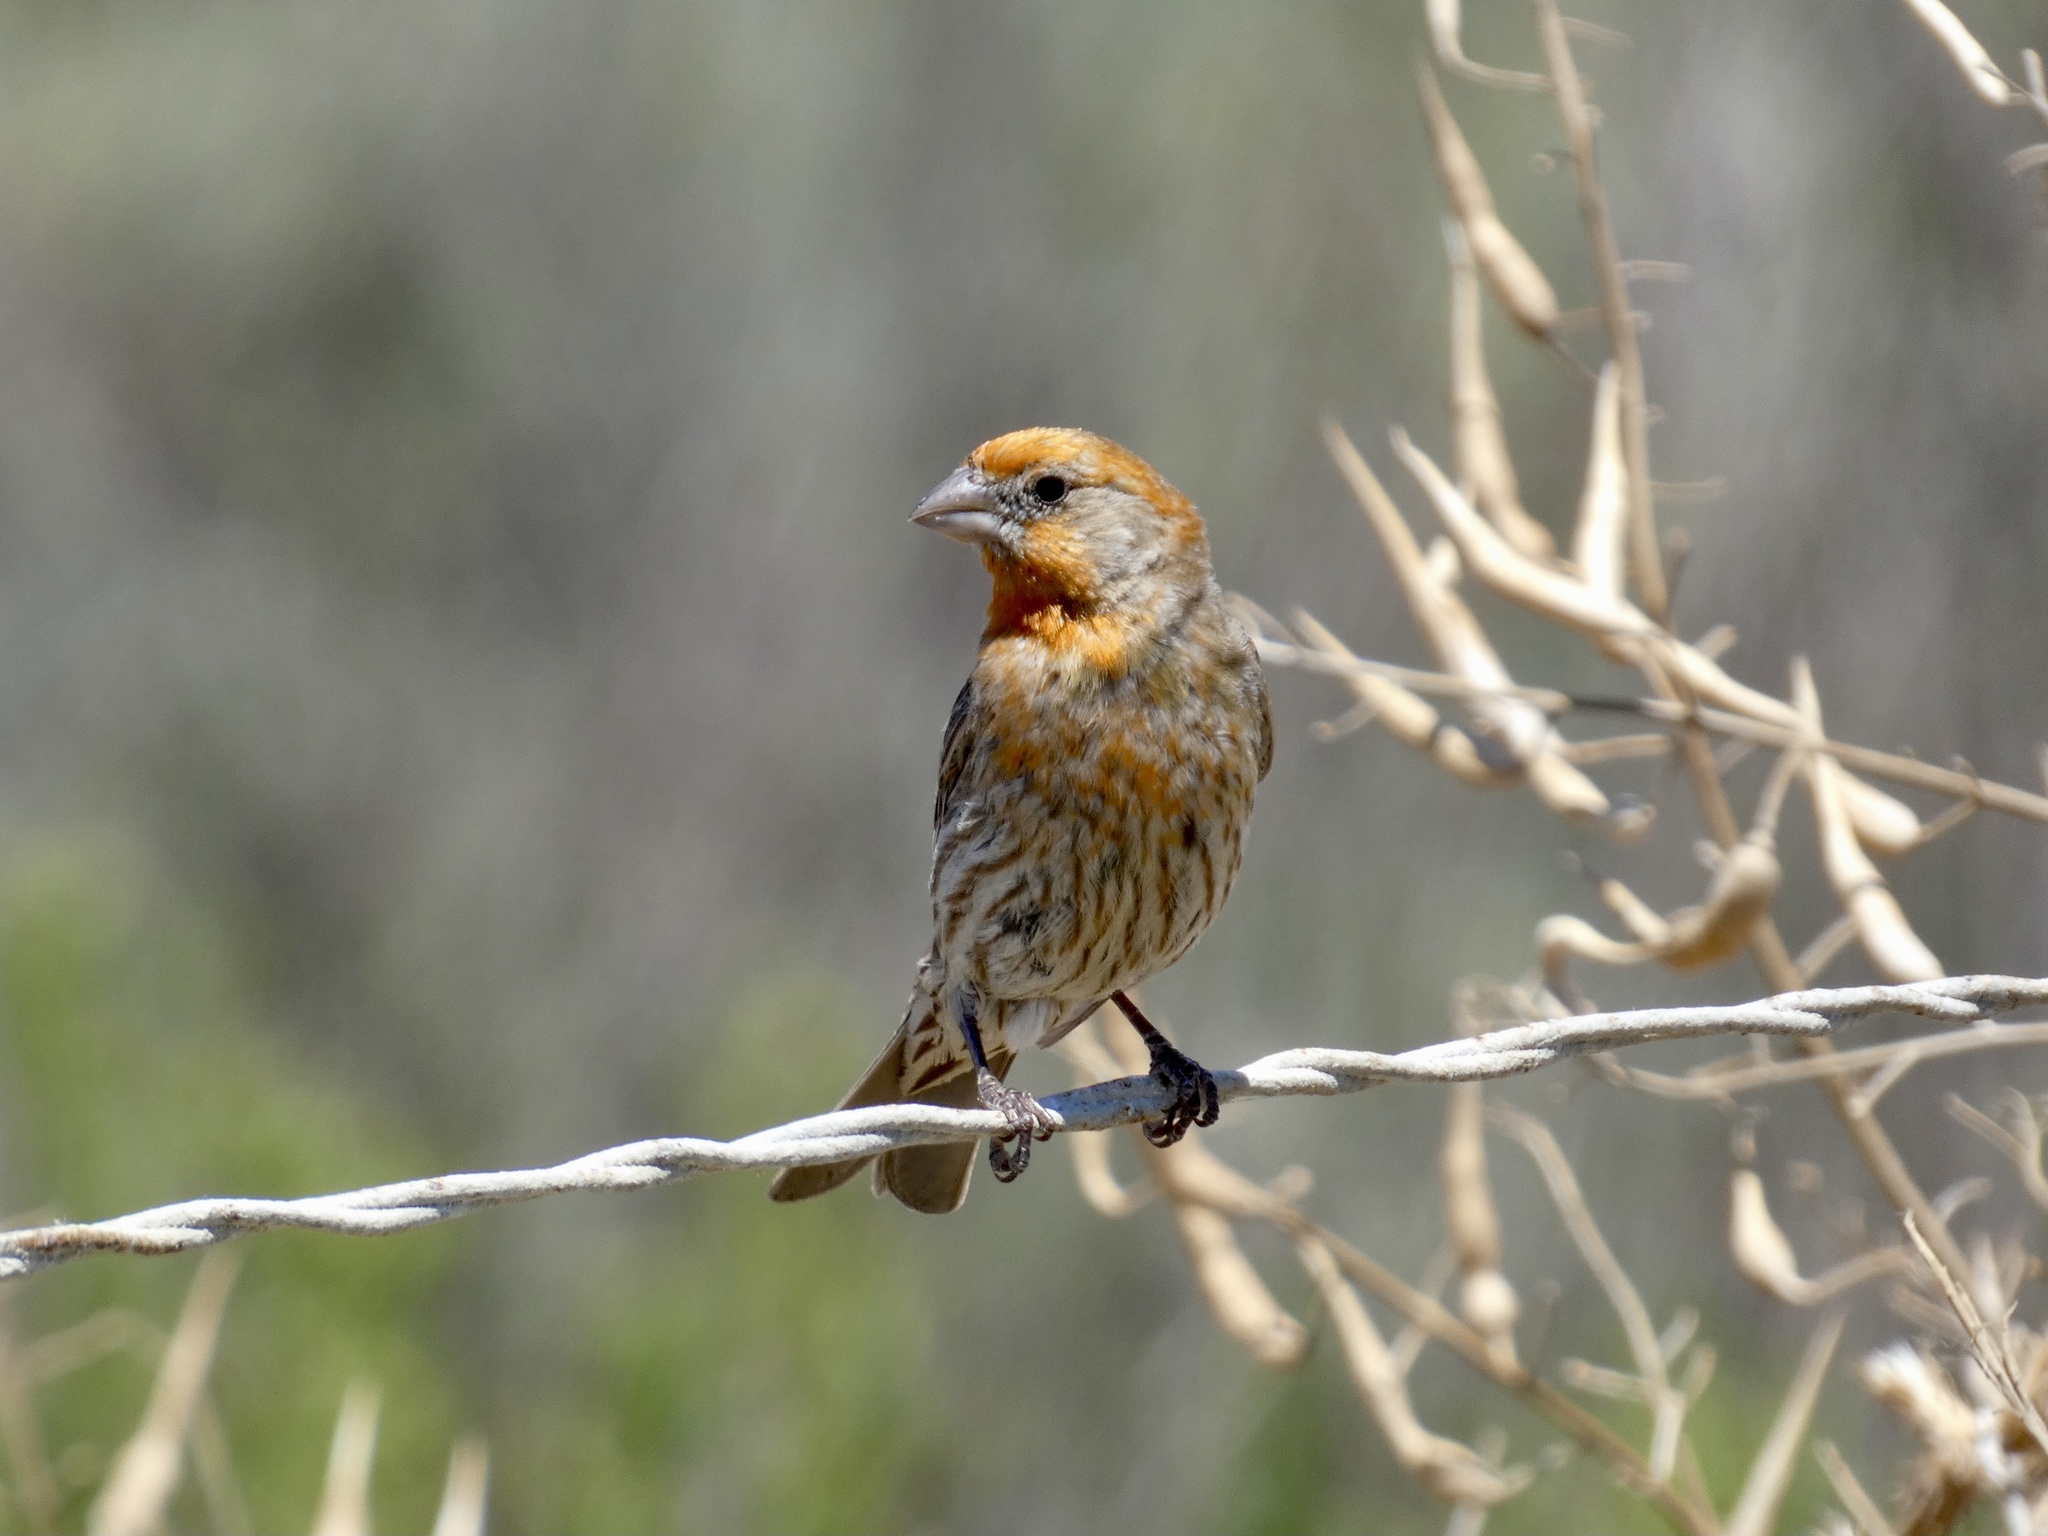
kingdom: Animalia
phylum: Chordata
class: Aves
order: Passeriformes
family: Fringillidae
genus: Haemorhous
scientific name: Haemorhous mexicanus
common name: House finch
